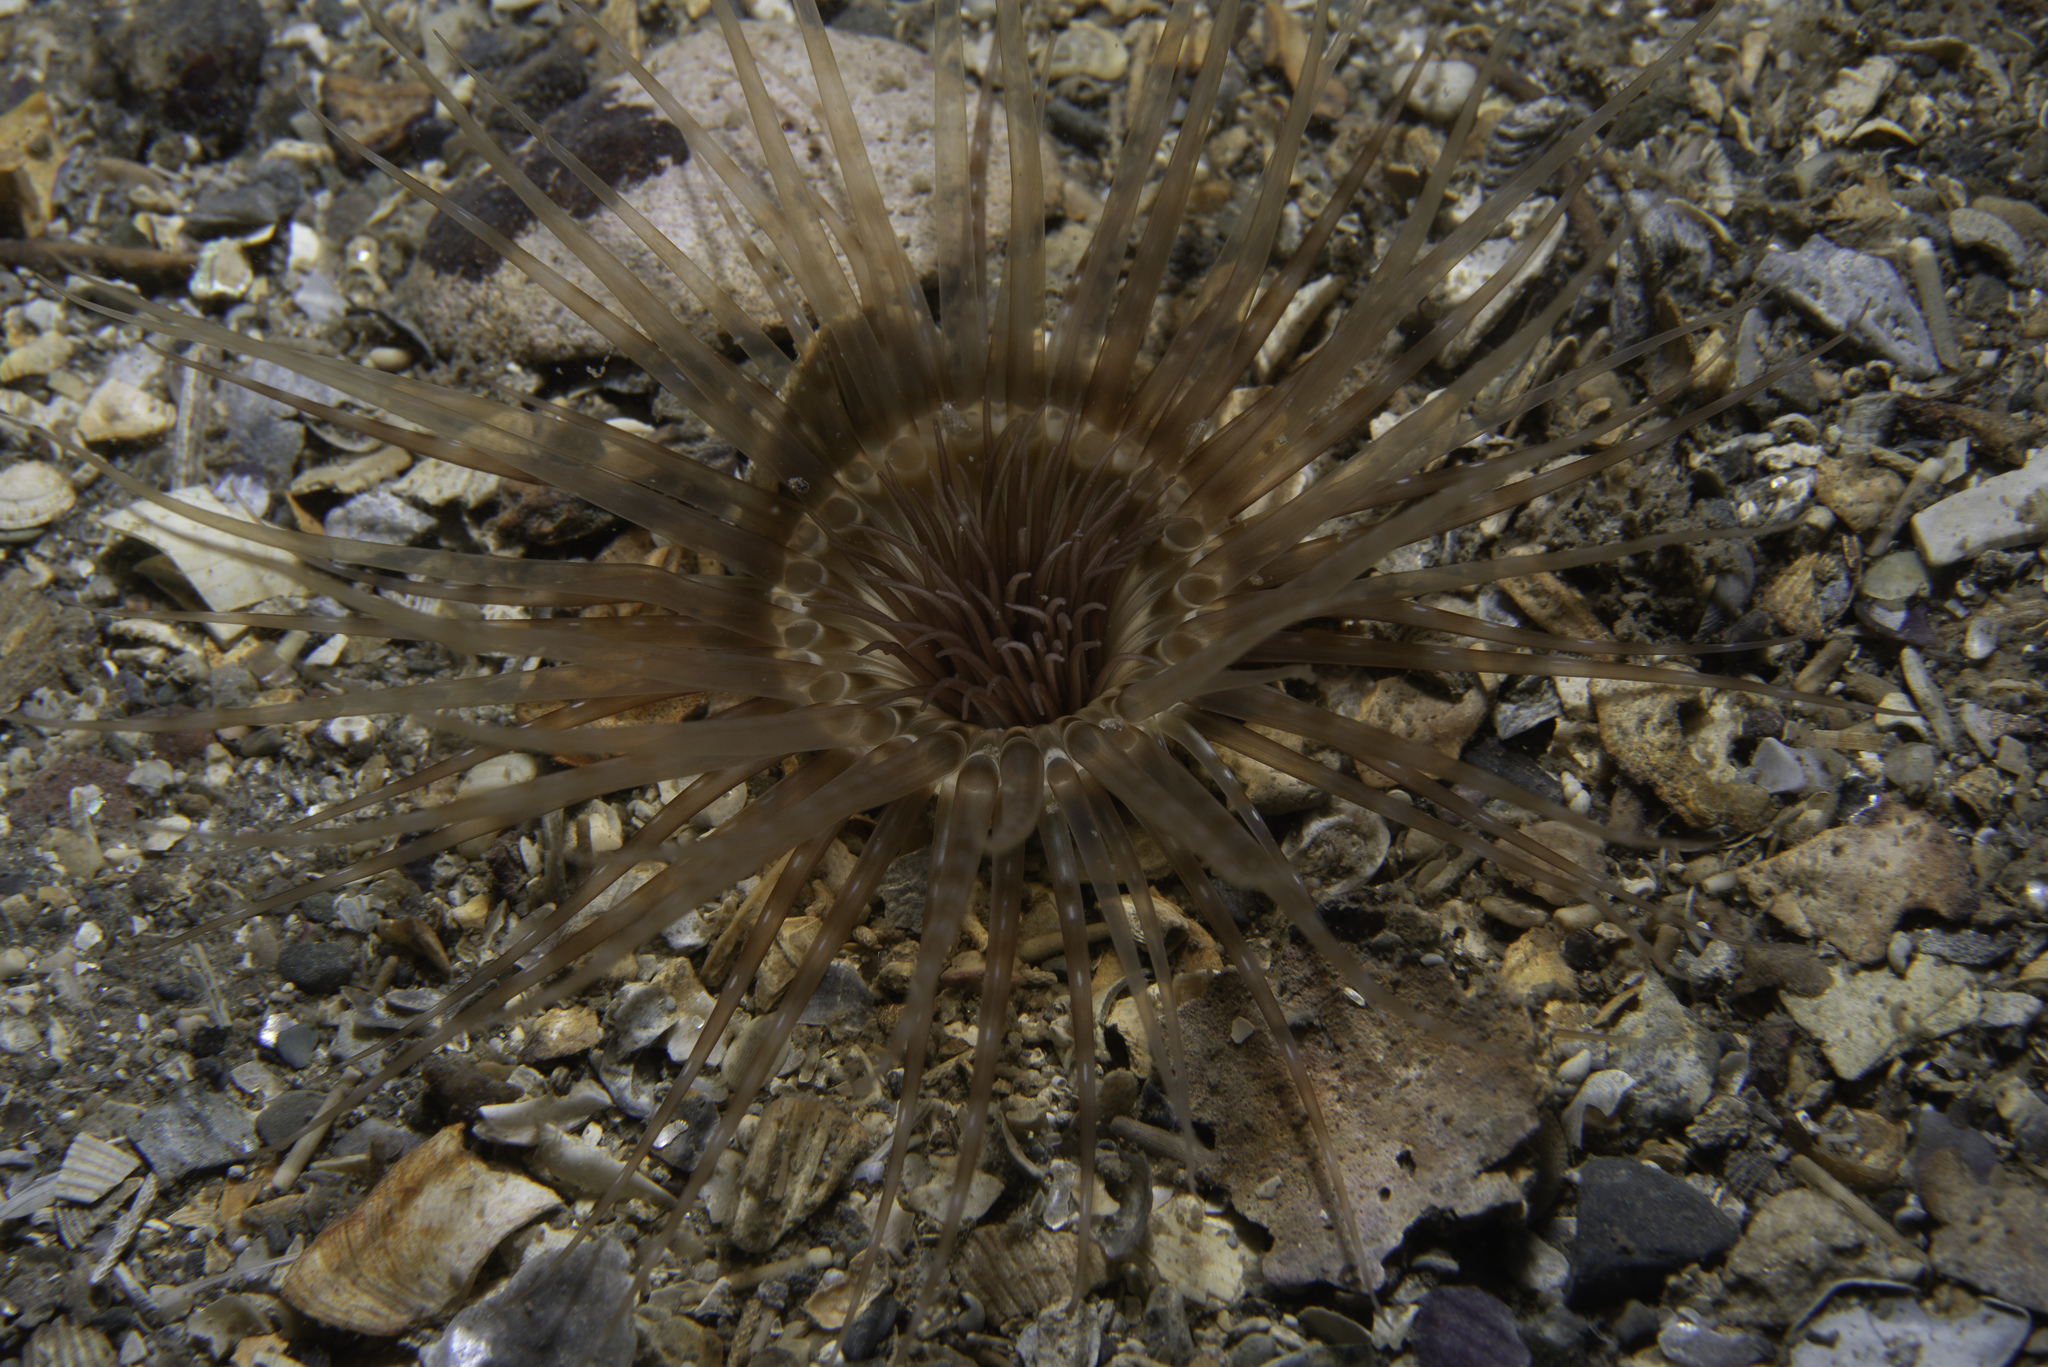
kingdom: Animalia
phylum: Cnidaria
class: Anthozoa
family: Cerianthidae
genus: Synarachnactis
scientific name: Synarachnactis
